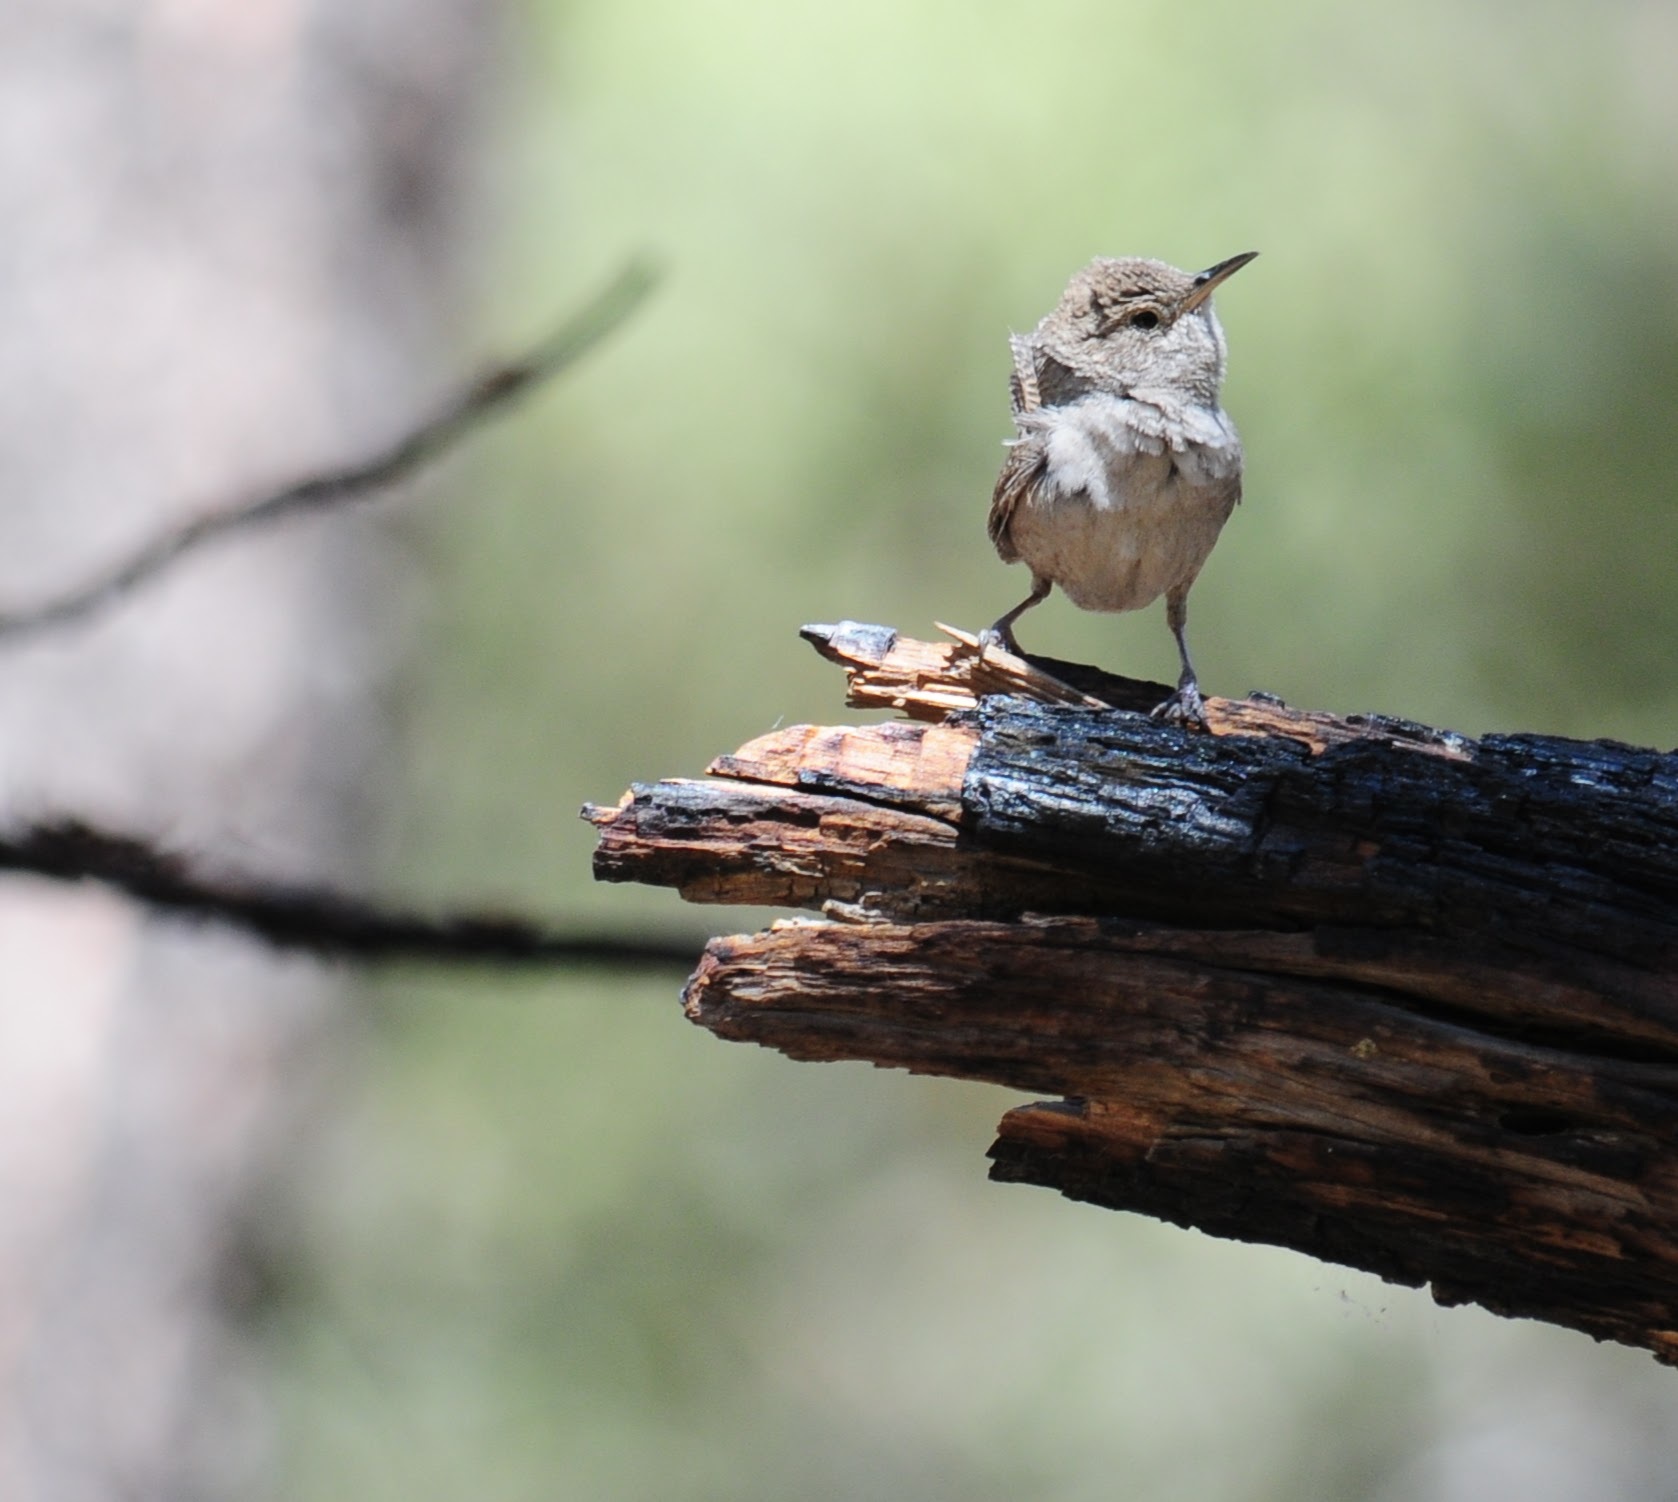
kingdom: Animalia
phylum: Chordata
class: Aves
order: Passeriformes
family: Troglodytidae
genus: Troglodytes
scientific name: Troglodytes aedon
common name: House wren
